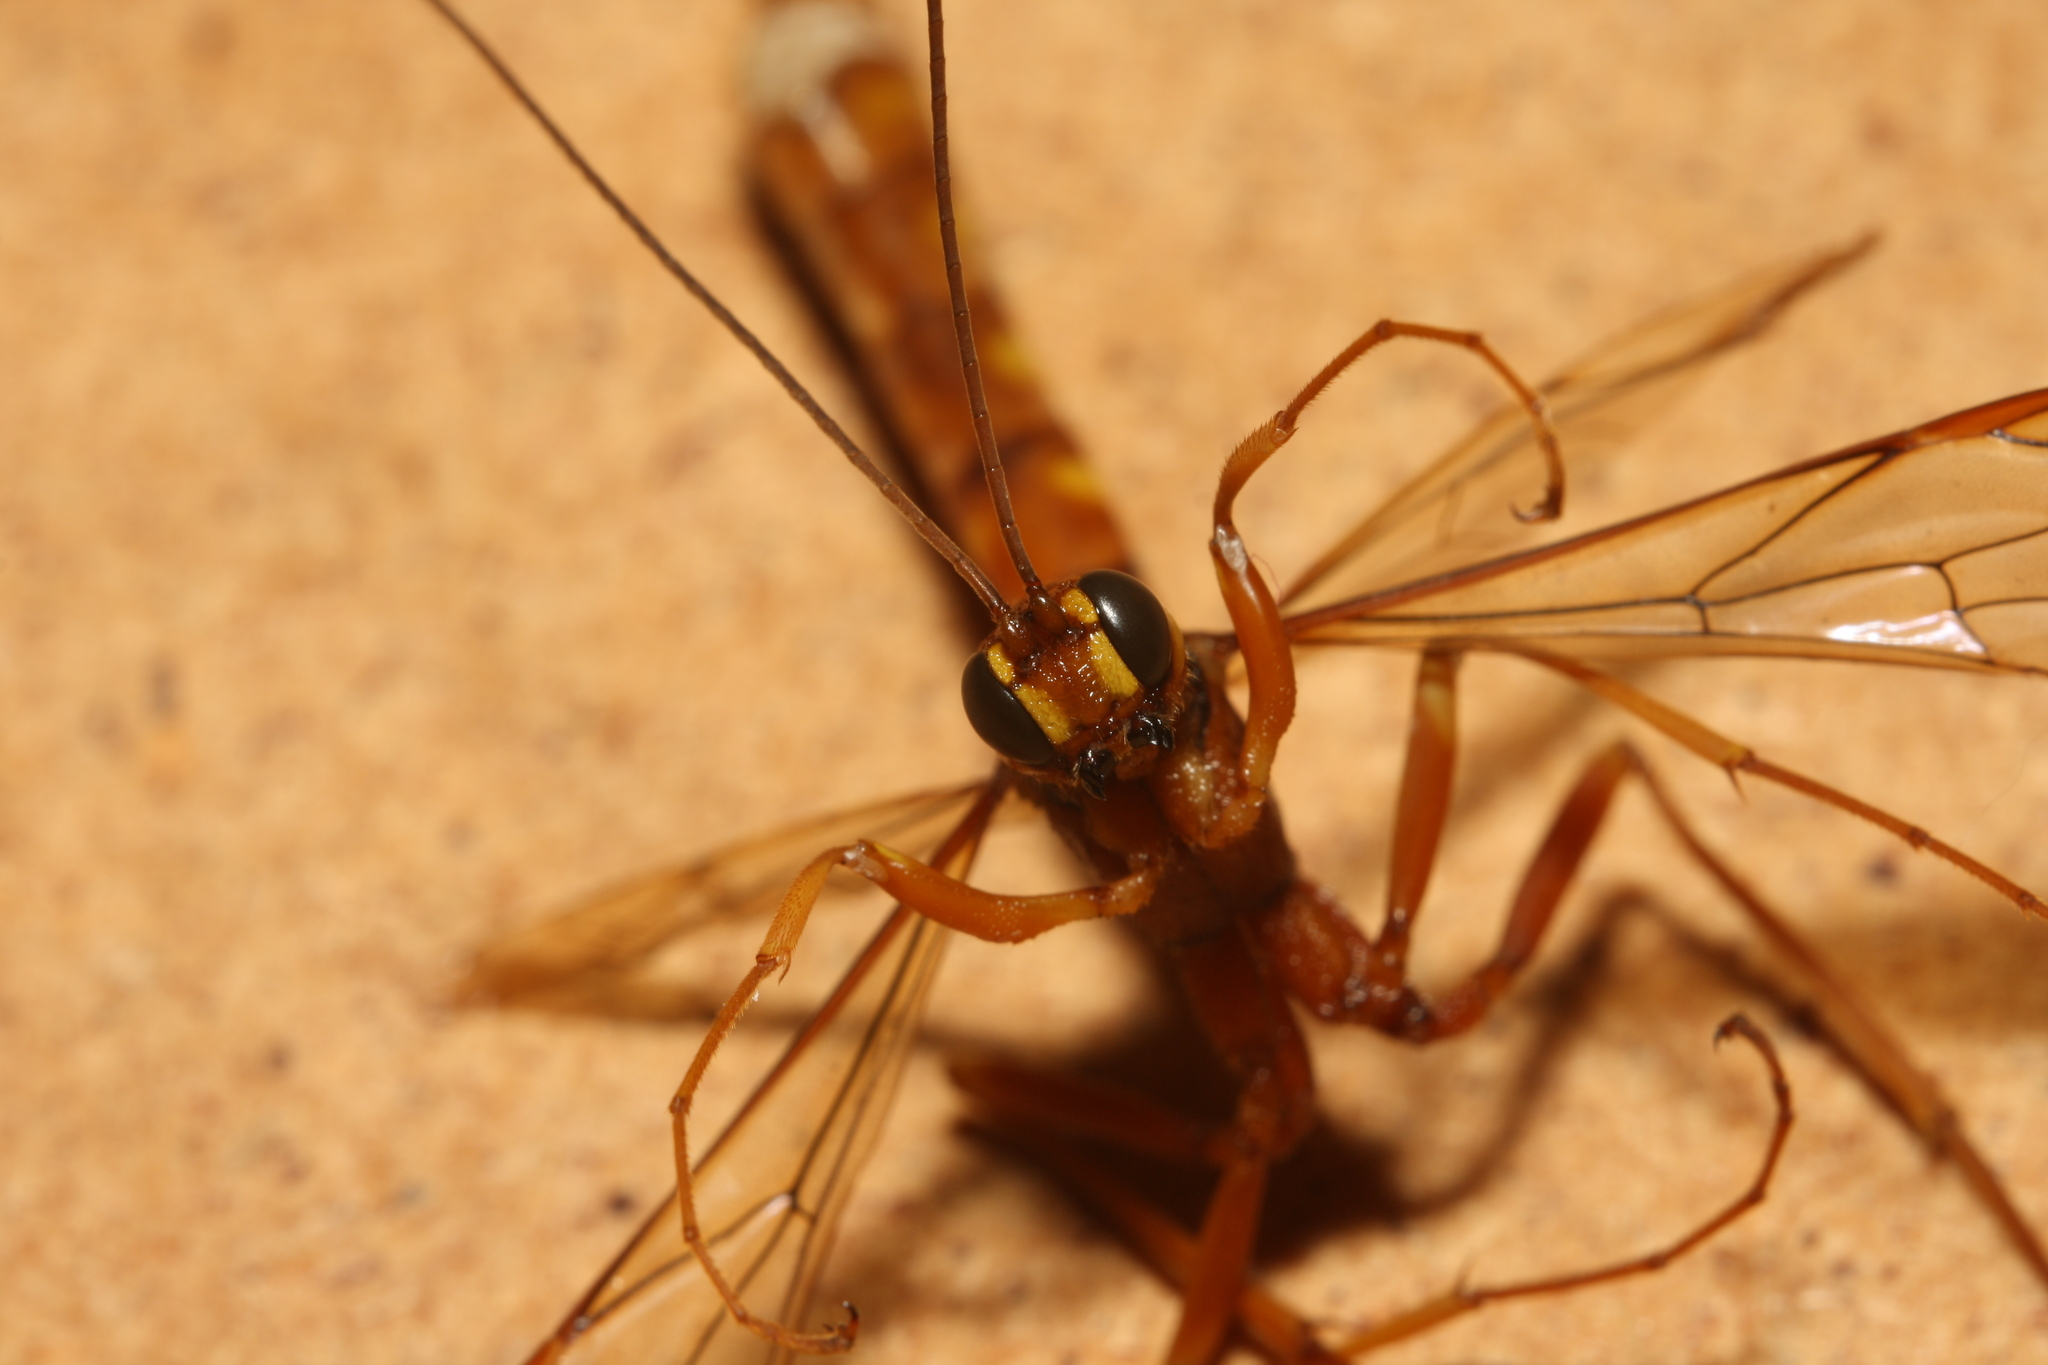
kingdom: Animalia
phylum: Arthropoda
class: Insecta
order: Hymenoptera
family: Ichneumonidae
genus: Megarhyssa
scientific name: Megarhyssa vagatoria
